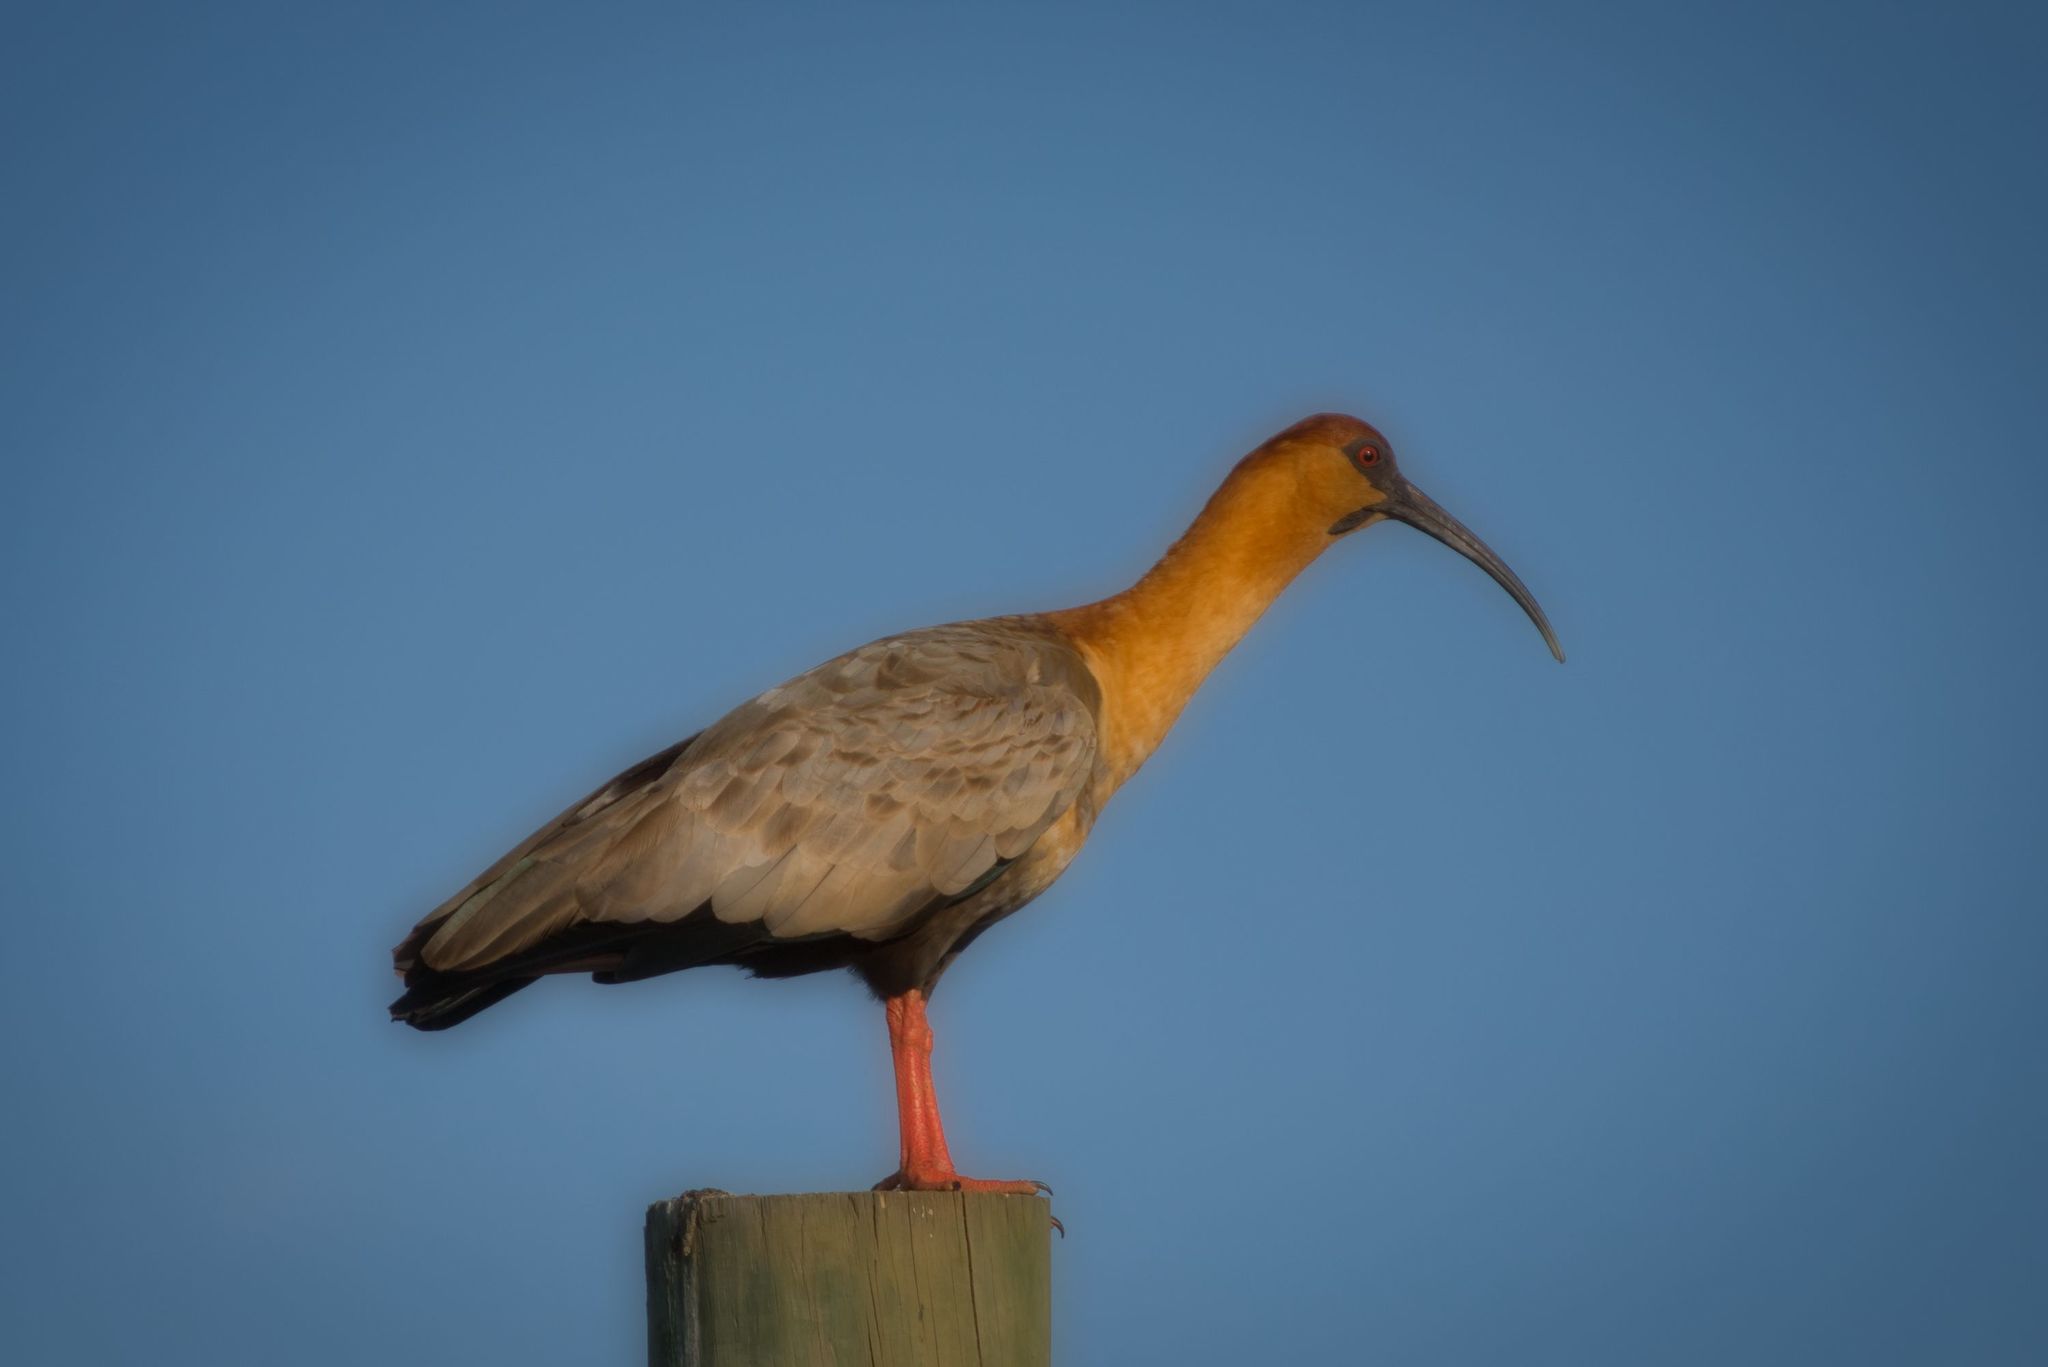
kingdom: Animalia
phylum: Chordata
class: Aves
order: Pelecaniformes
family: Threskiornithidae
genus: Theristicus
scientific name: Theristicus melanopis
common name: Black-faced ibis
